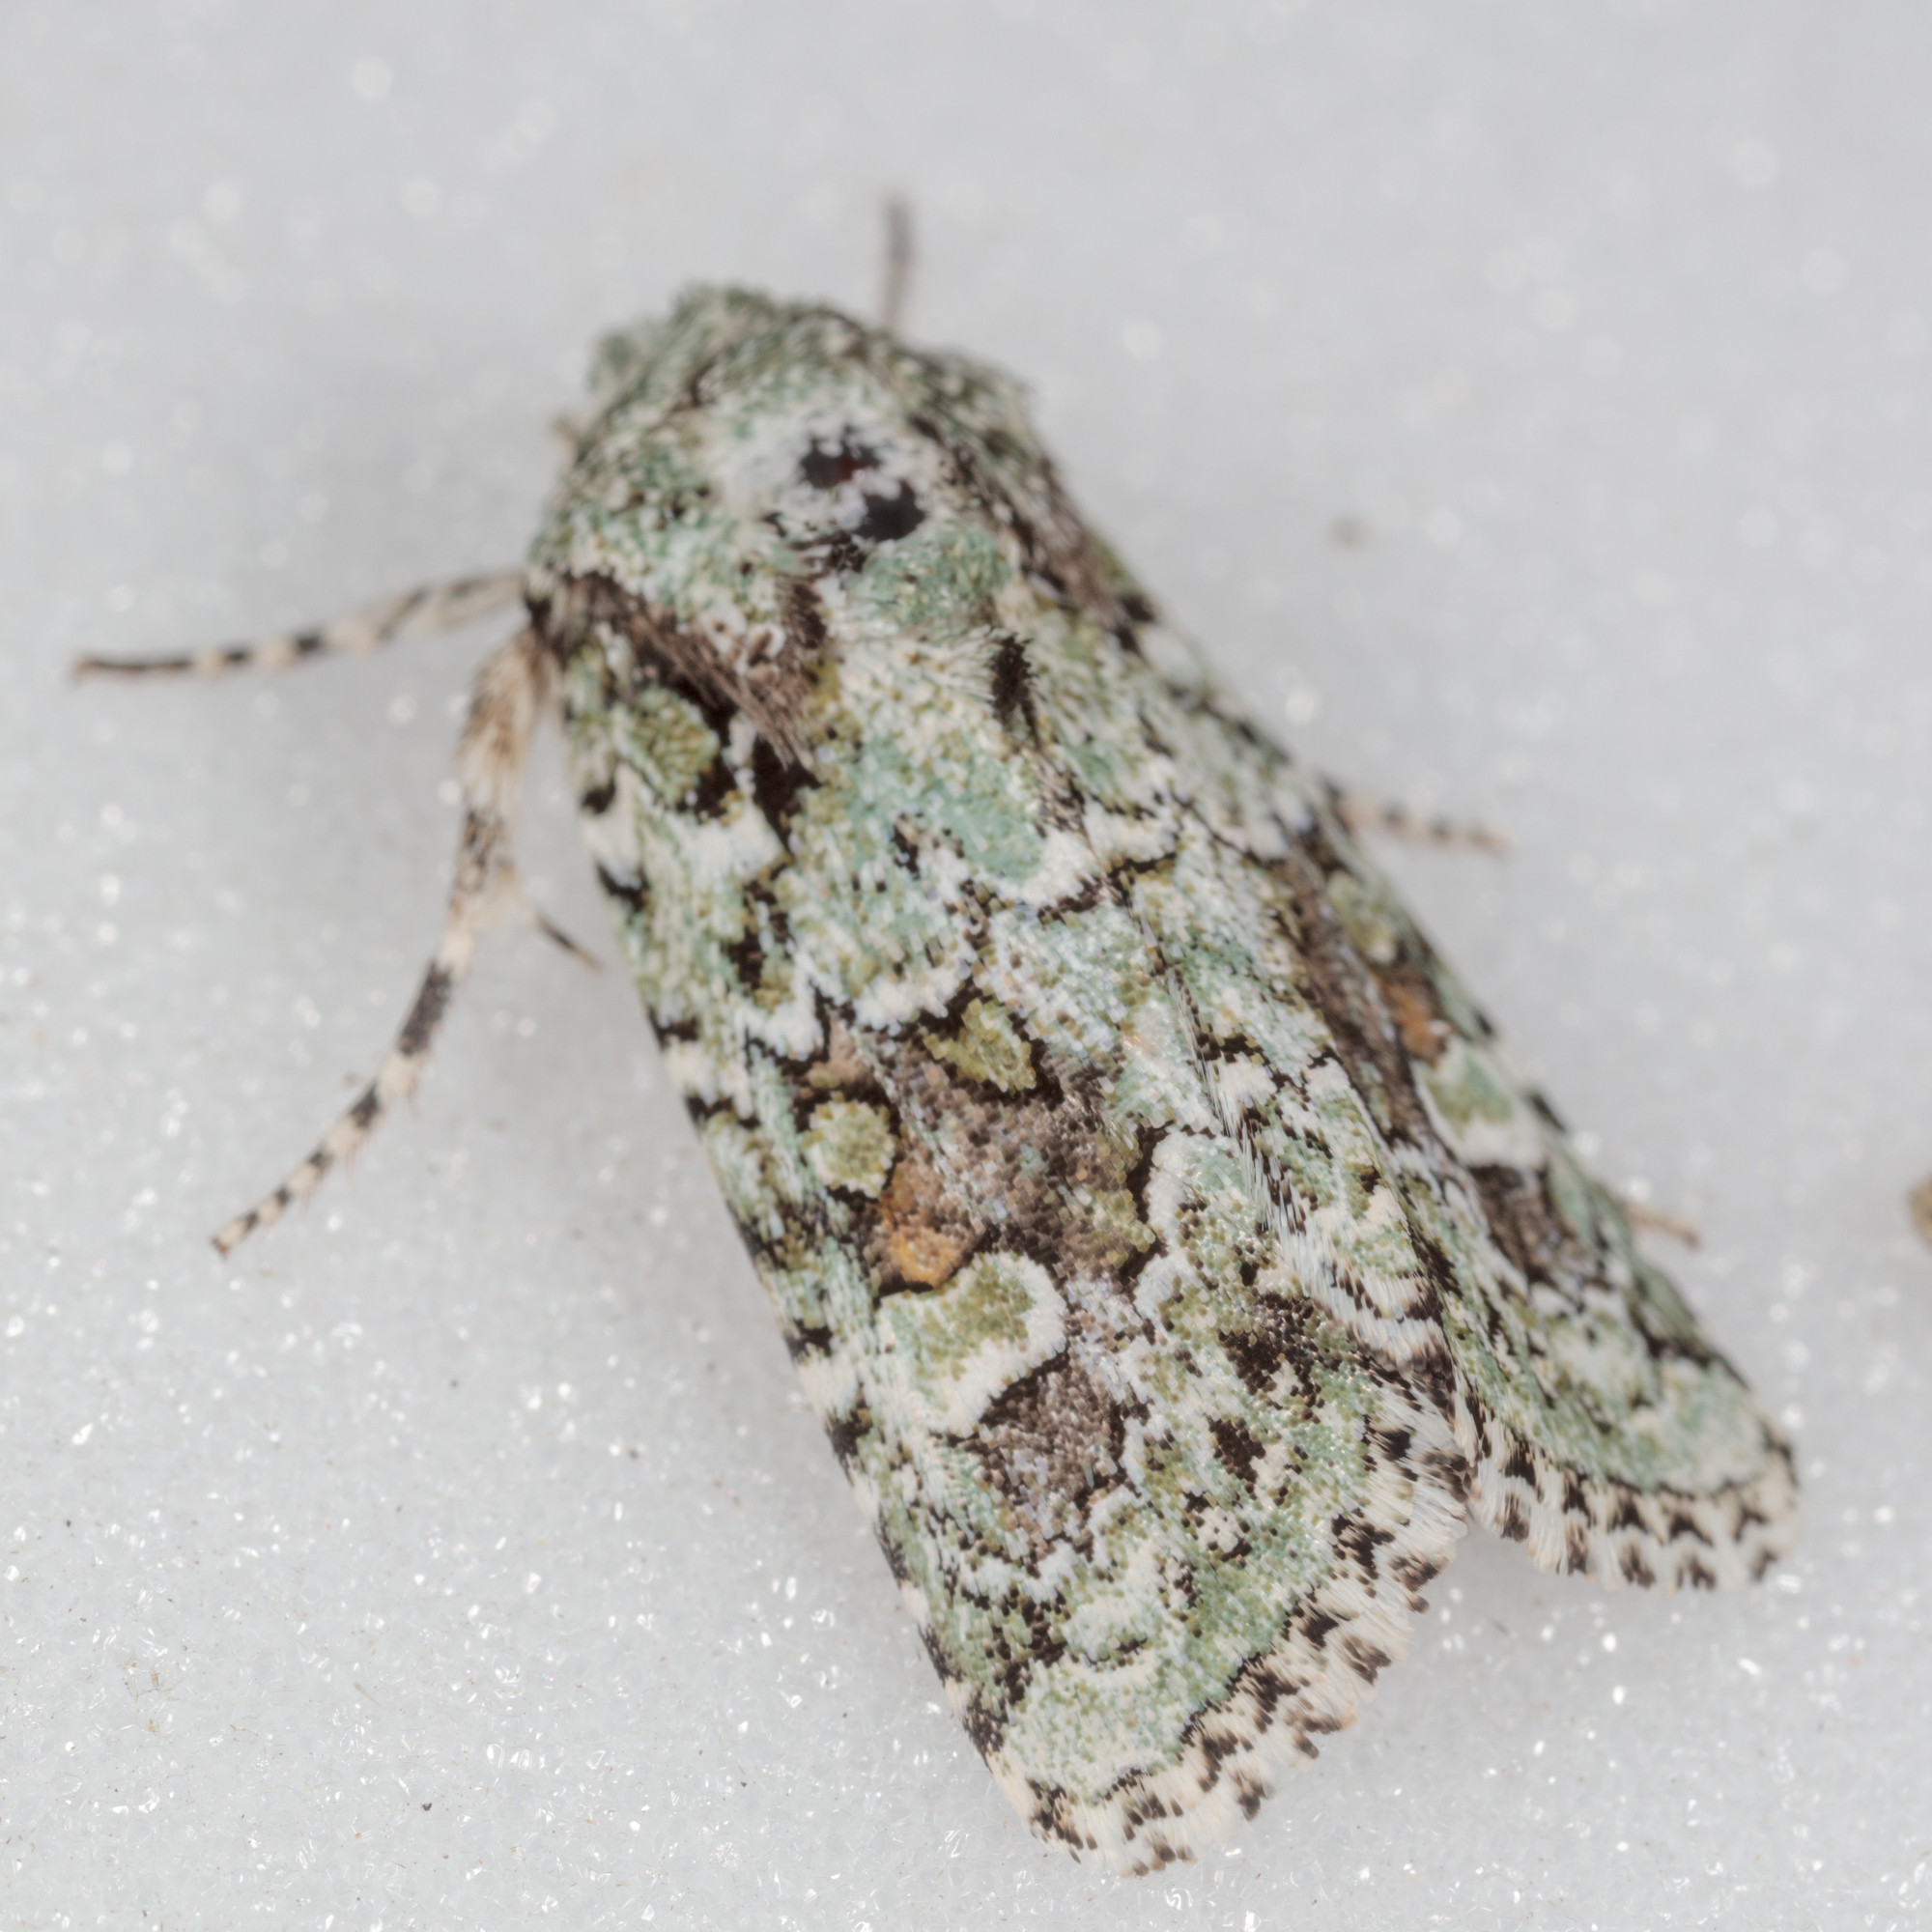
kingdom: Animalia
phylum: Arthropoda
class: Insecta
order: Lepidoptera
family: Noctuidae
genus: Lacinipolia
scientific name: Lacinipolia laudabilis
